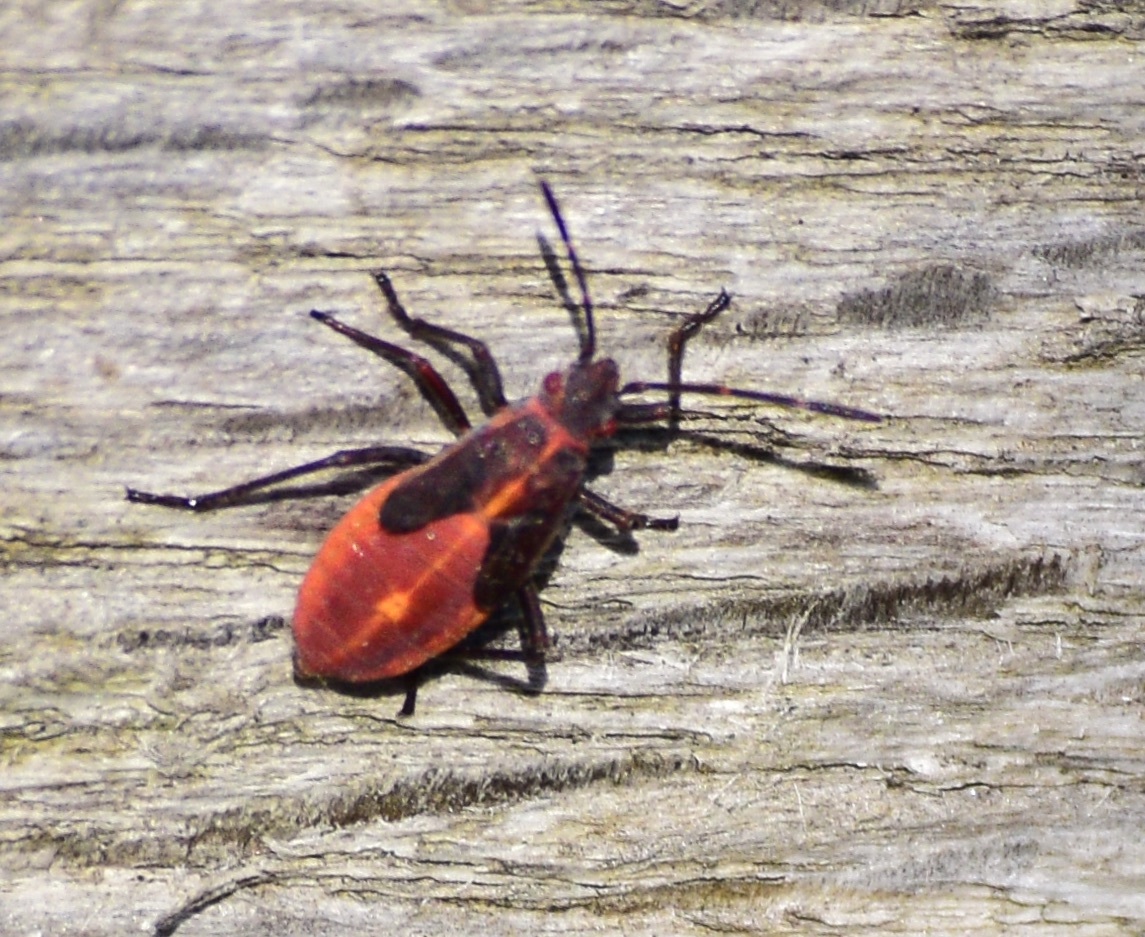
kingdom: Animalia
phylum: Arthropoda
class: Insecta
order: Hemiptera
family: Rhopalidae
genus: Boisea
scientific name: Boisea trivittata
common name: Boxelder bug
